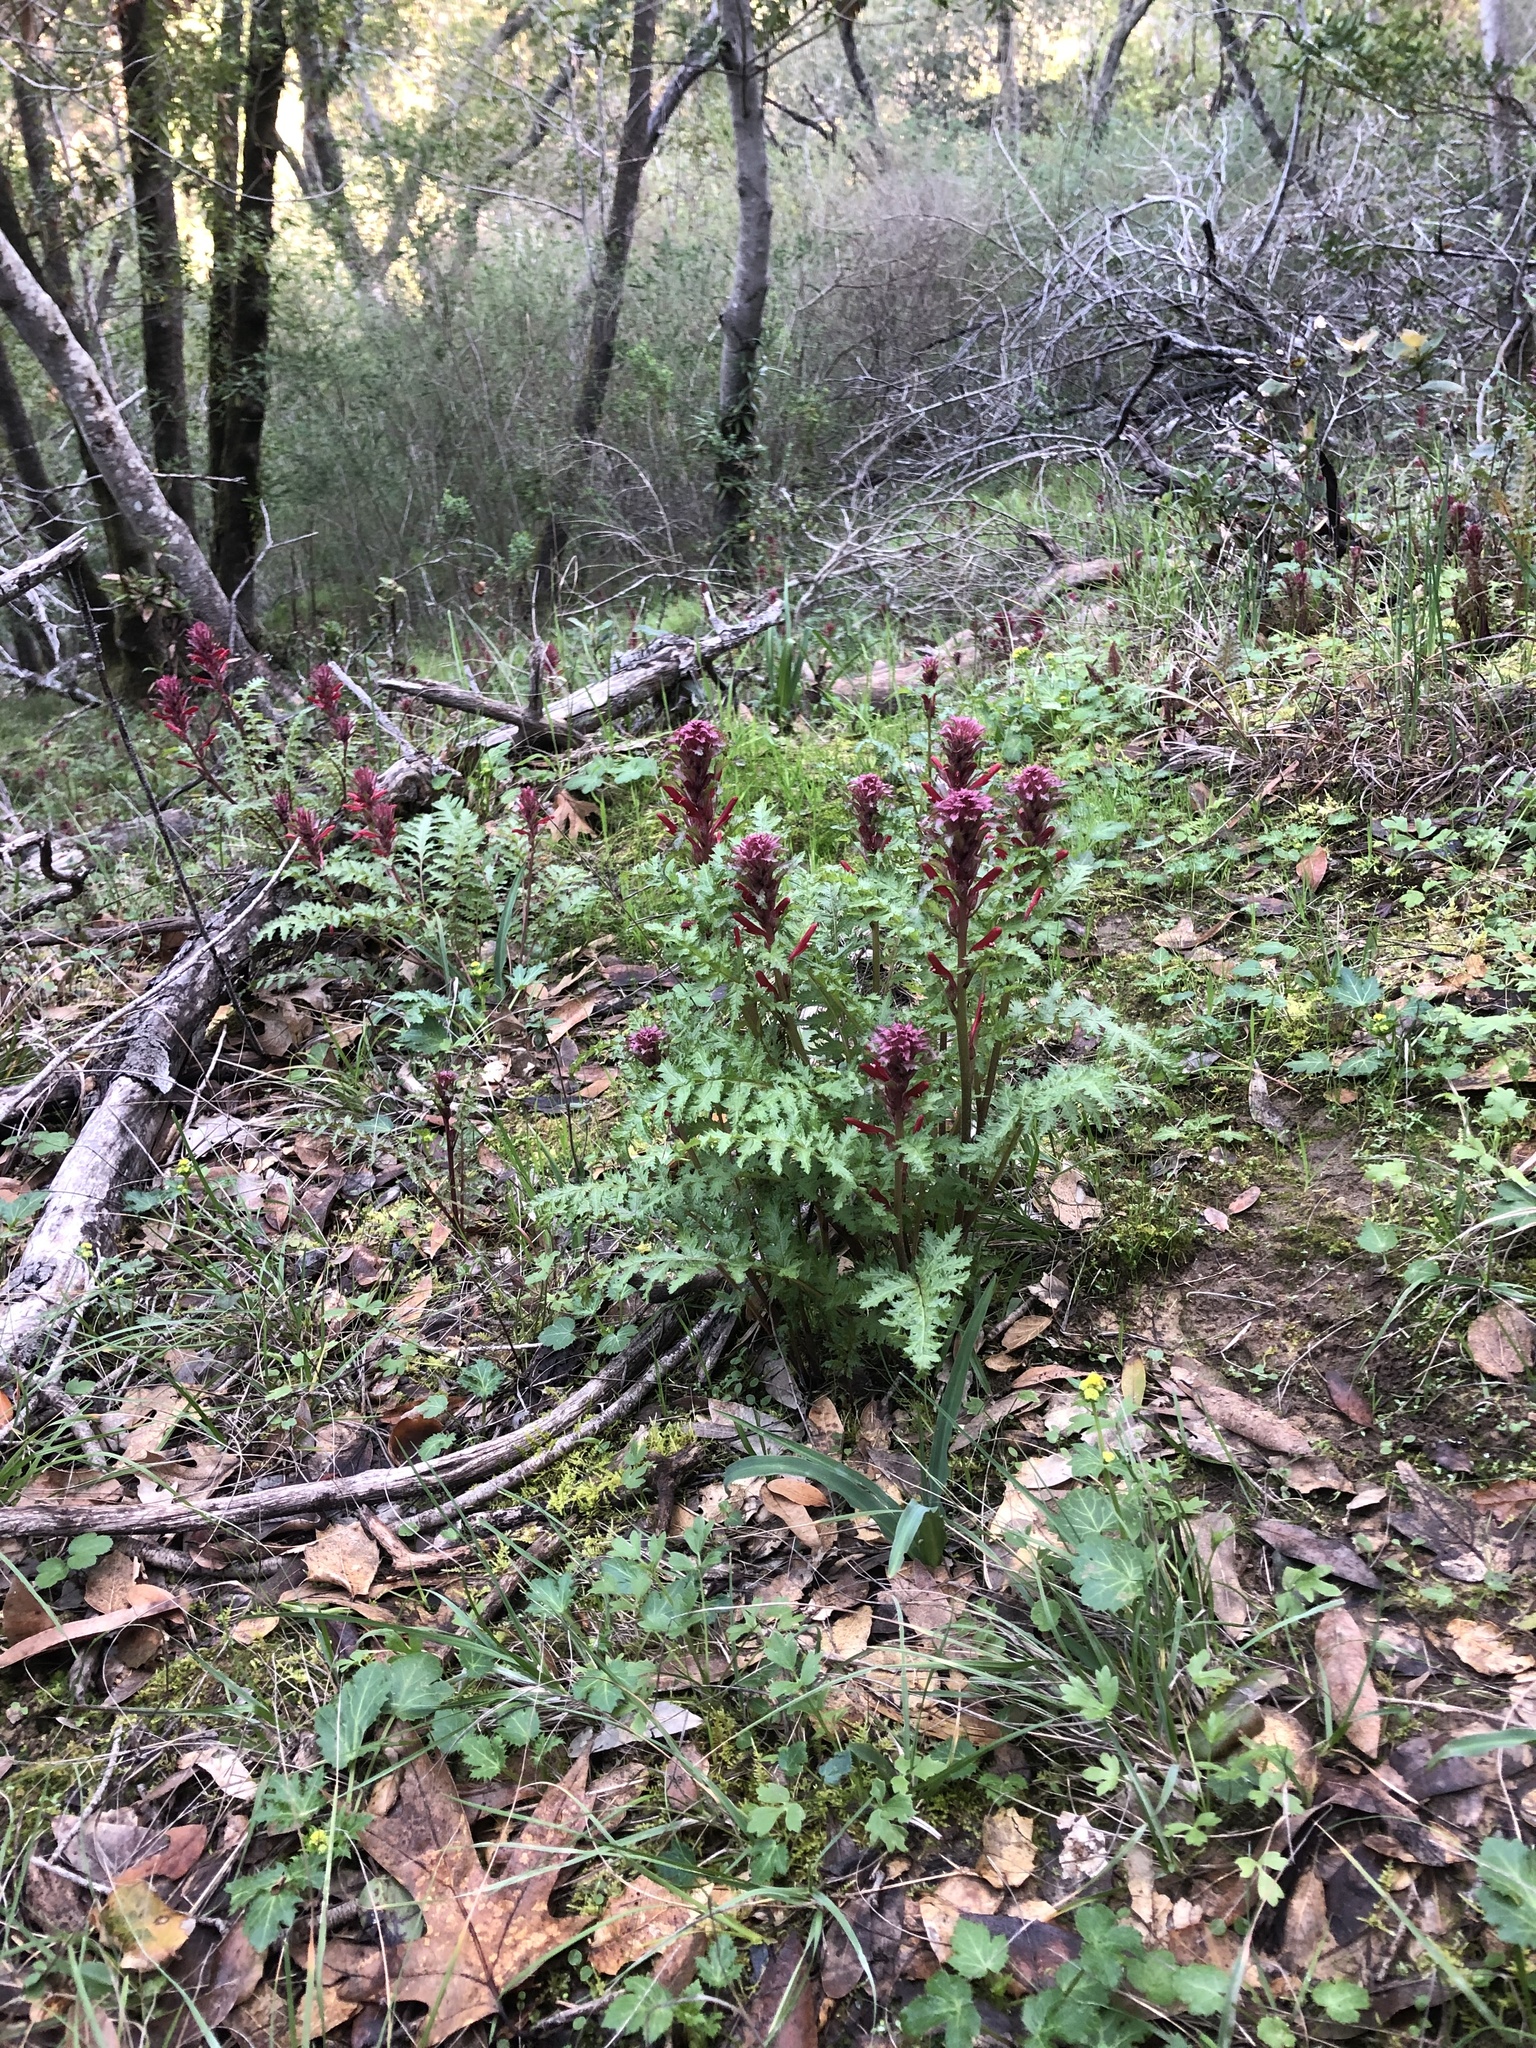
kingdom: Plantae
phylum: Tracheophyta
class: Magnoliopsida
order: Lamiales
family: Orobanchaceae
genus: Pedicularis
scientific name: Pedicularis densiflora
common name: Indian warrior
